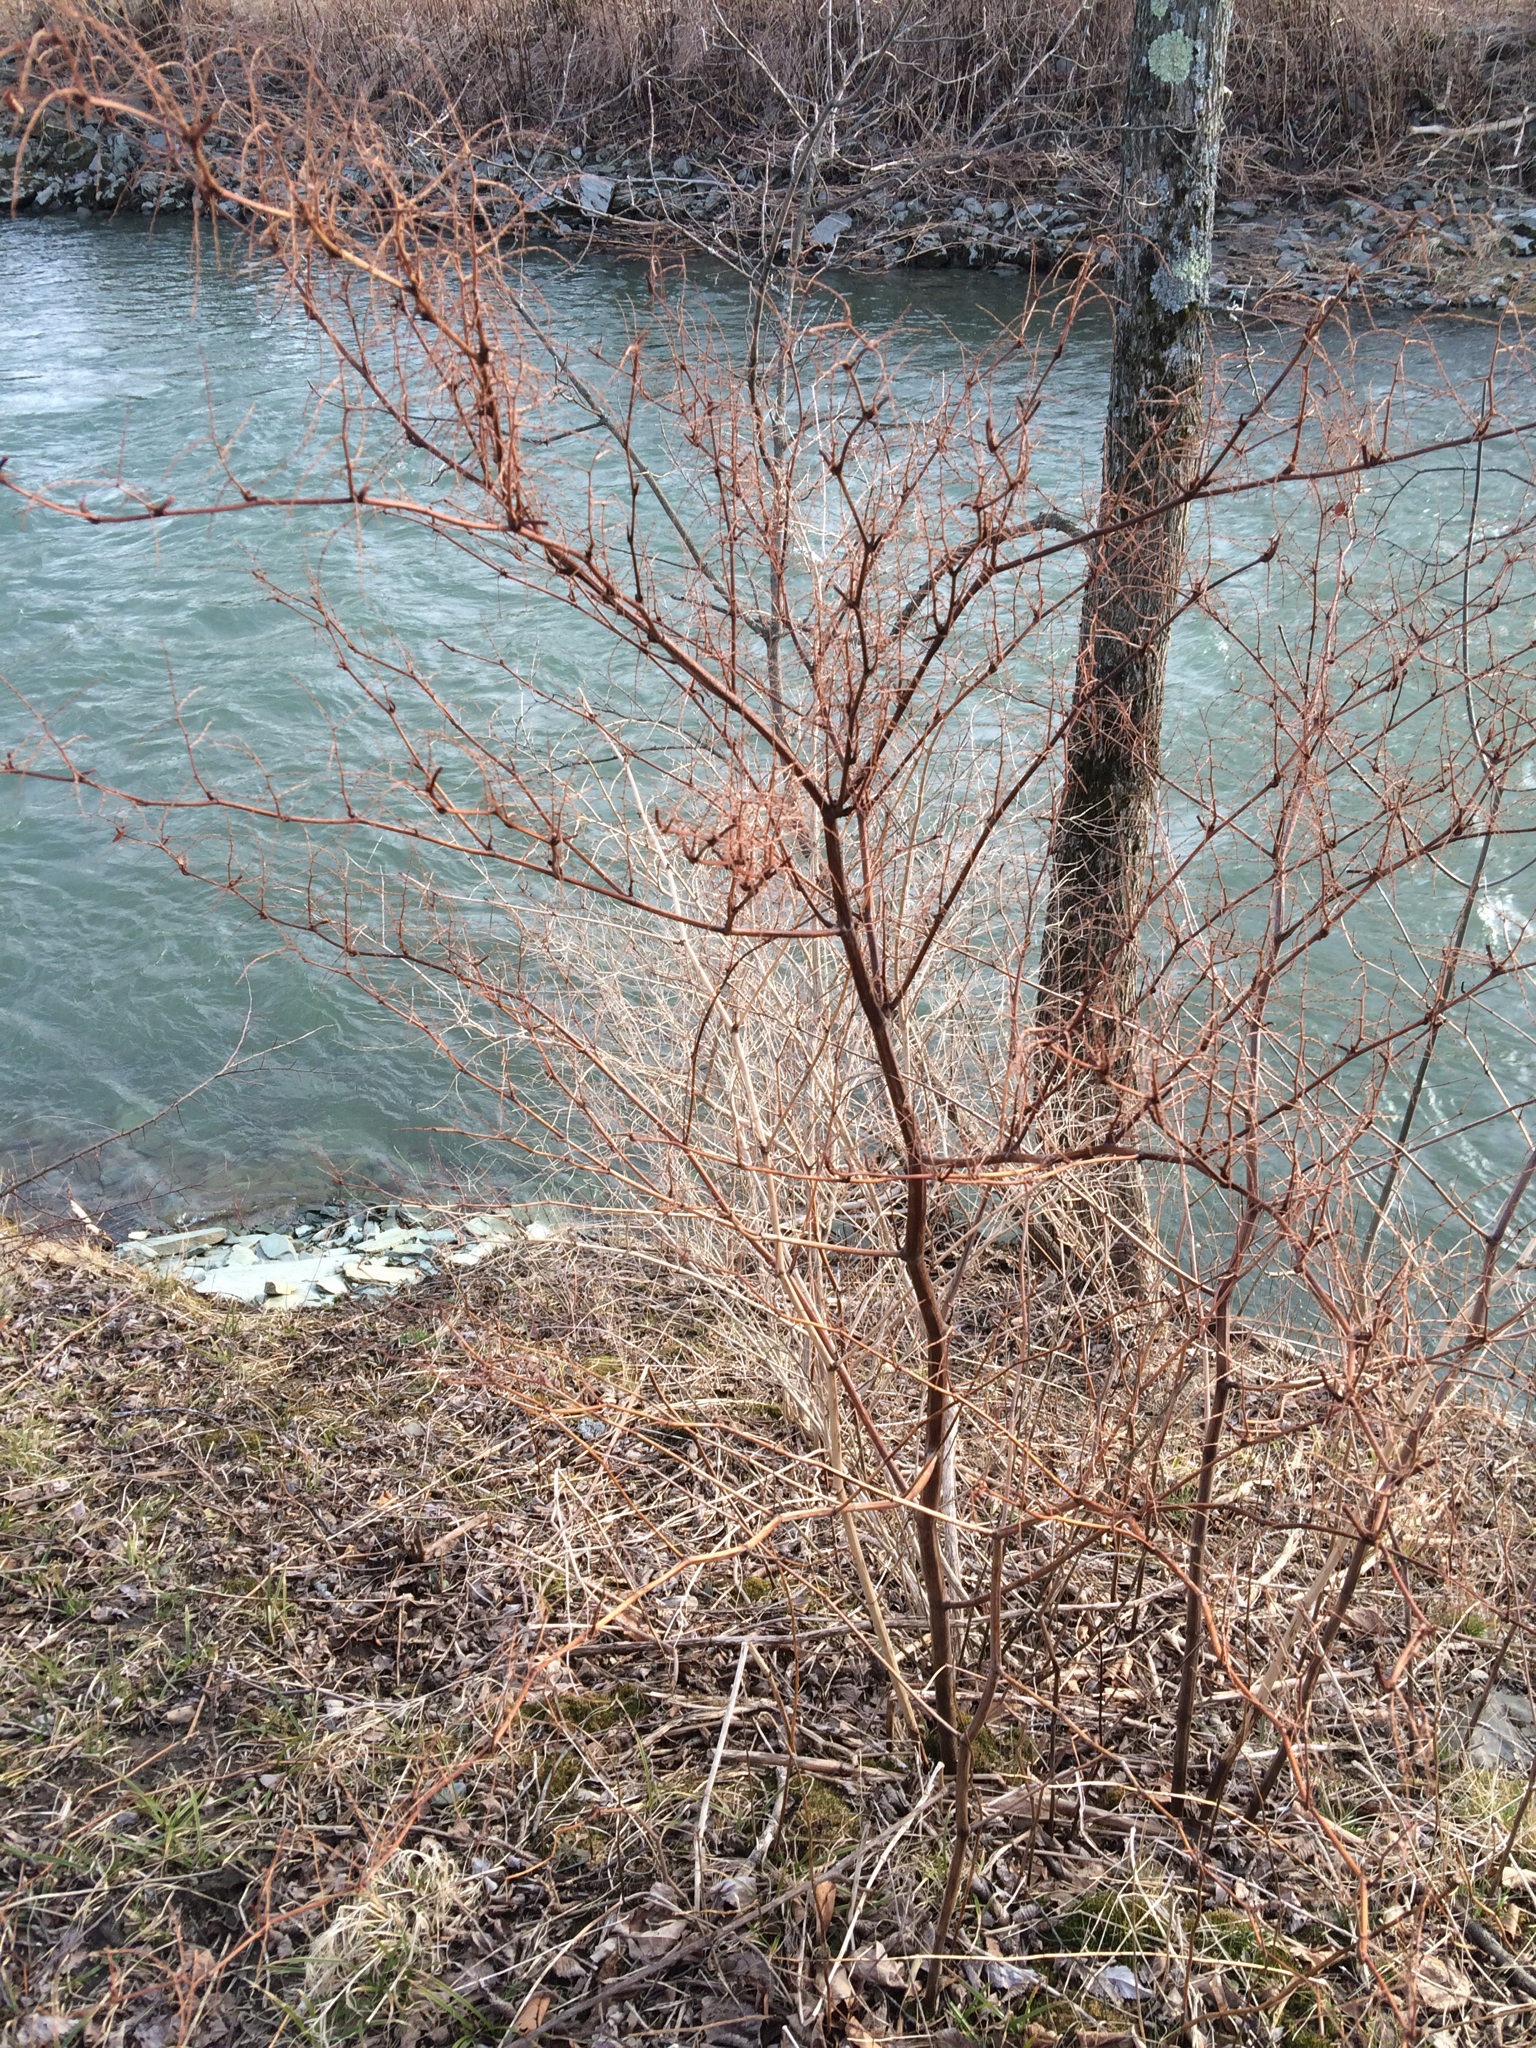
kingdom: Plantae
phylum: Tracheophyta
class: Magnoliopsida
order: Caryophyllales
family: Polygonaceae
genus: Reynoutria
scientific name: Reynoutria japonica
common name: Japanese knotweed
